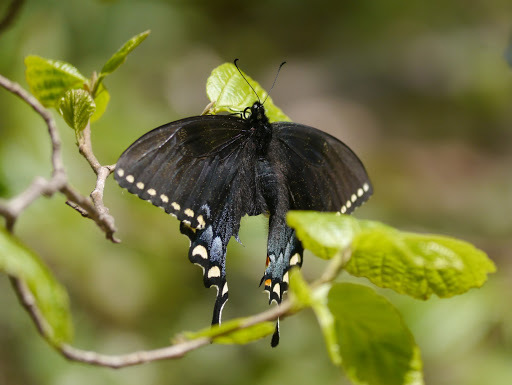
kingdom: Animalia
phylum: Arthropoda
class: Insecta
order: Lepidoptera
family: Papilionidae
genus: Papilio
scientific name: Papilio glaucus
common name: Tiger swallowtail
